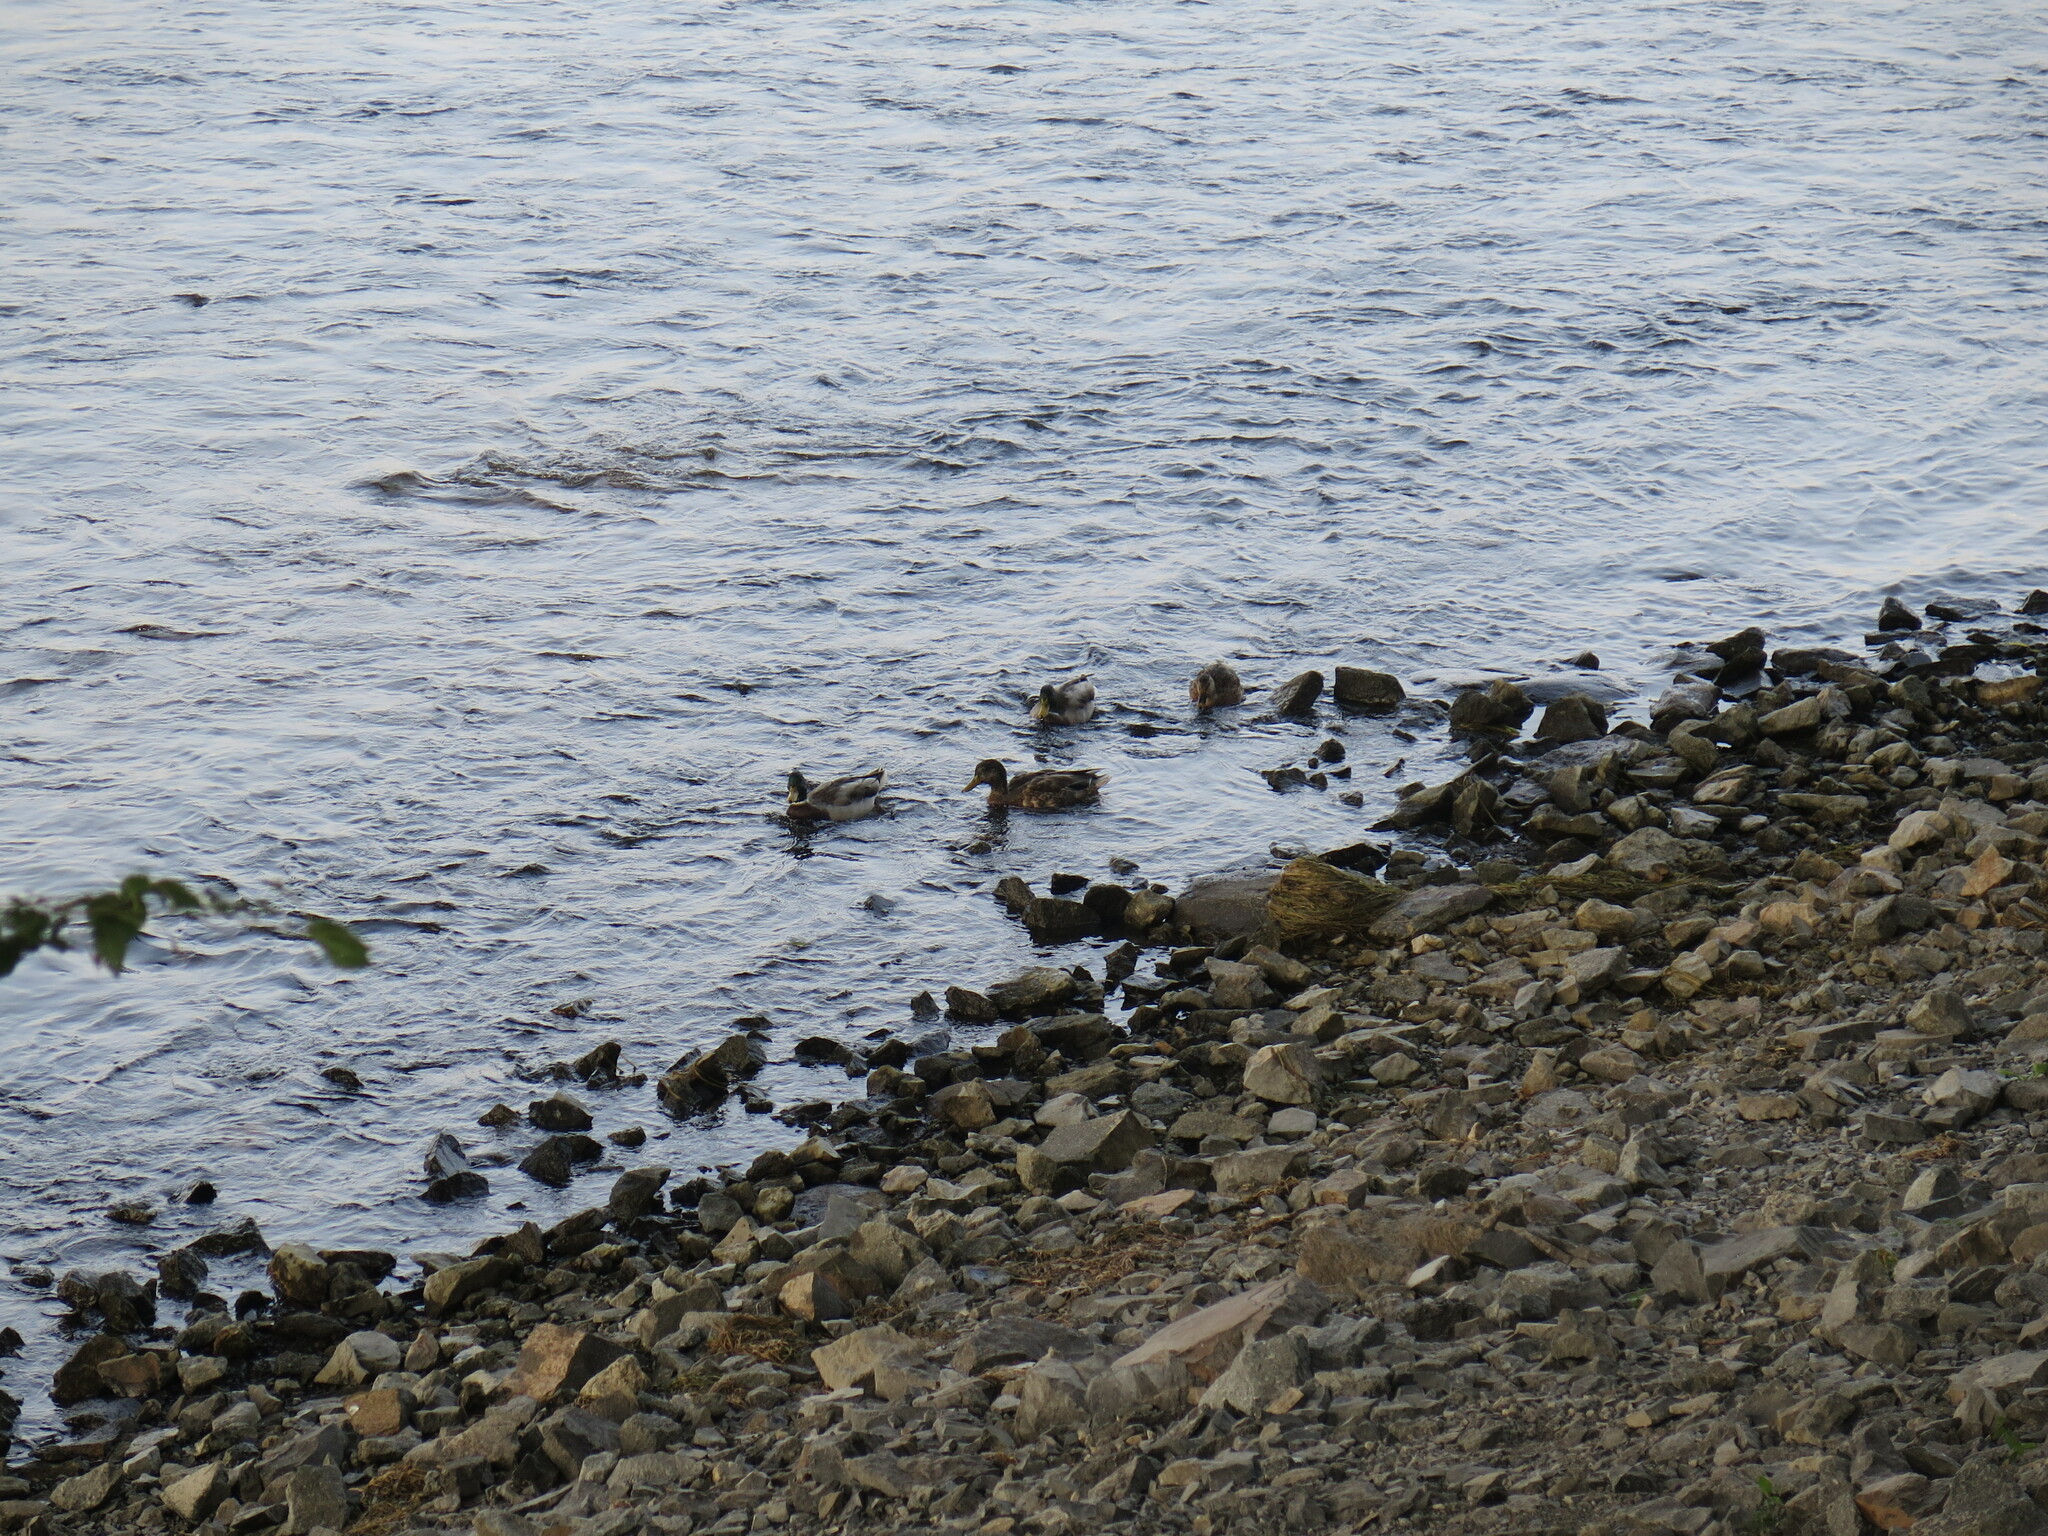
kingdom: Animalia
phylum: Chordata
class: Aves
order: Anseriformes
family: Anatidae
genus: Anas
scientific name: Anas platyrhynchos
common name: Mallard
